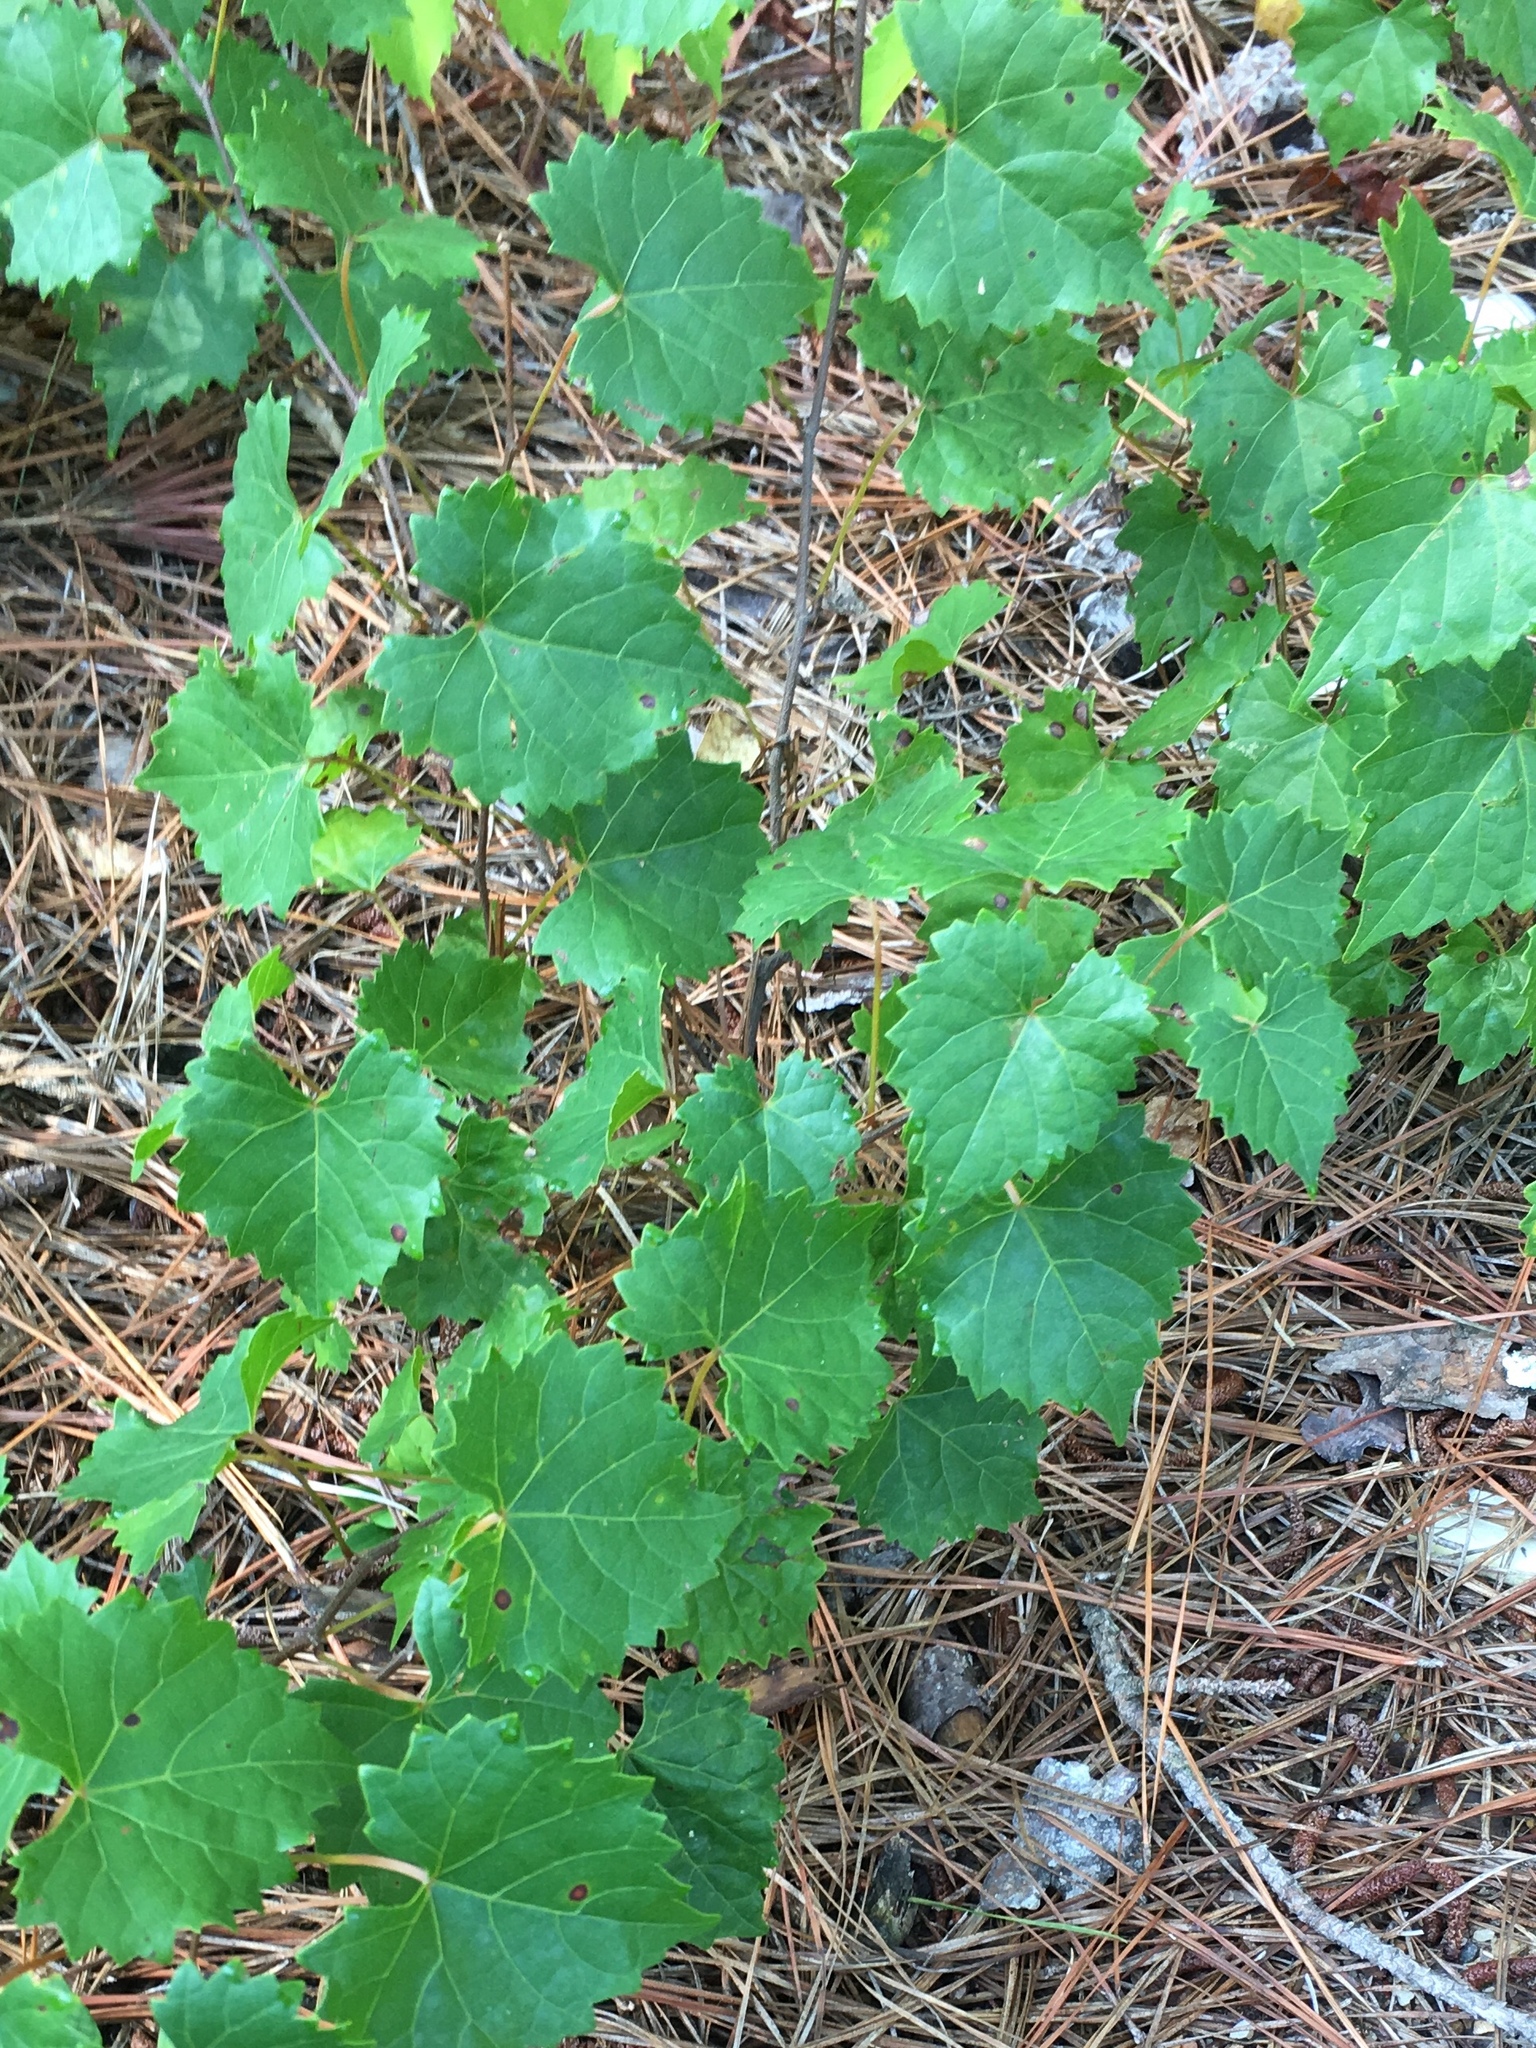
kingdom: Plantae
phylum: Tracheophyta
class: Magnoliopsida
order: Vitales
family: Vitaceae
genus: Vitis
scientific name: Vitis rotundifolia
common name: Muscadine grape
